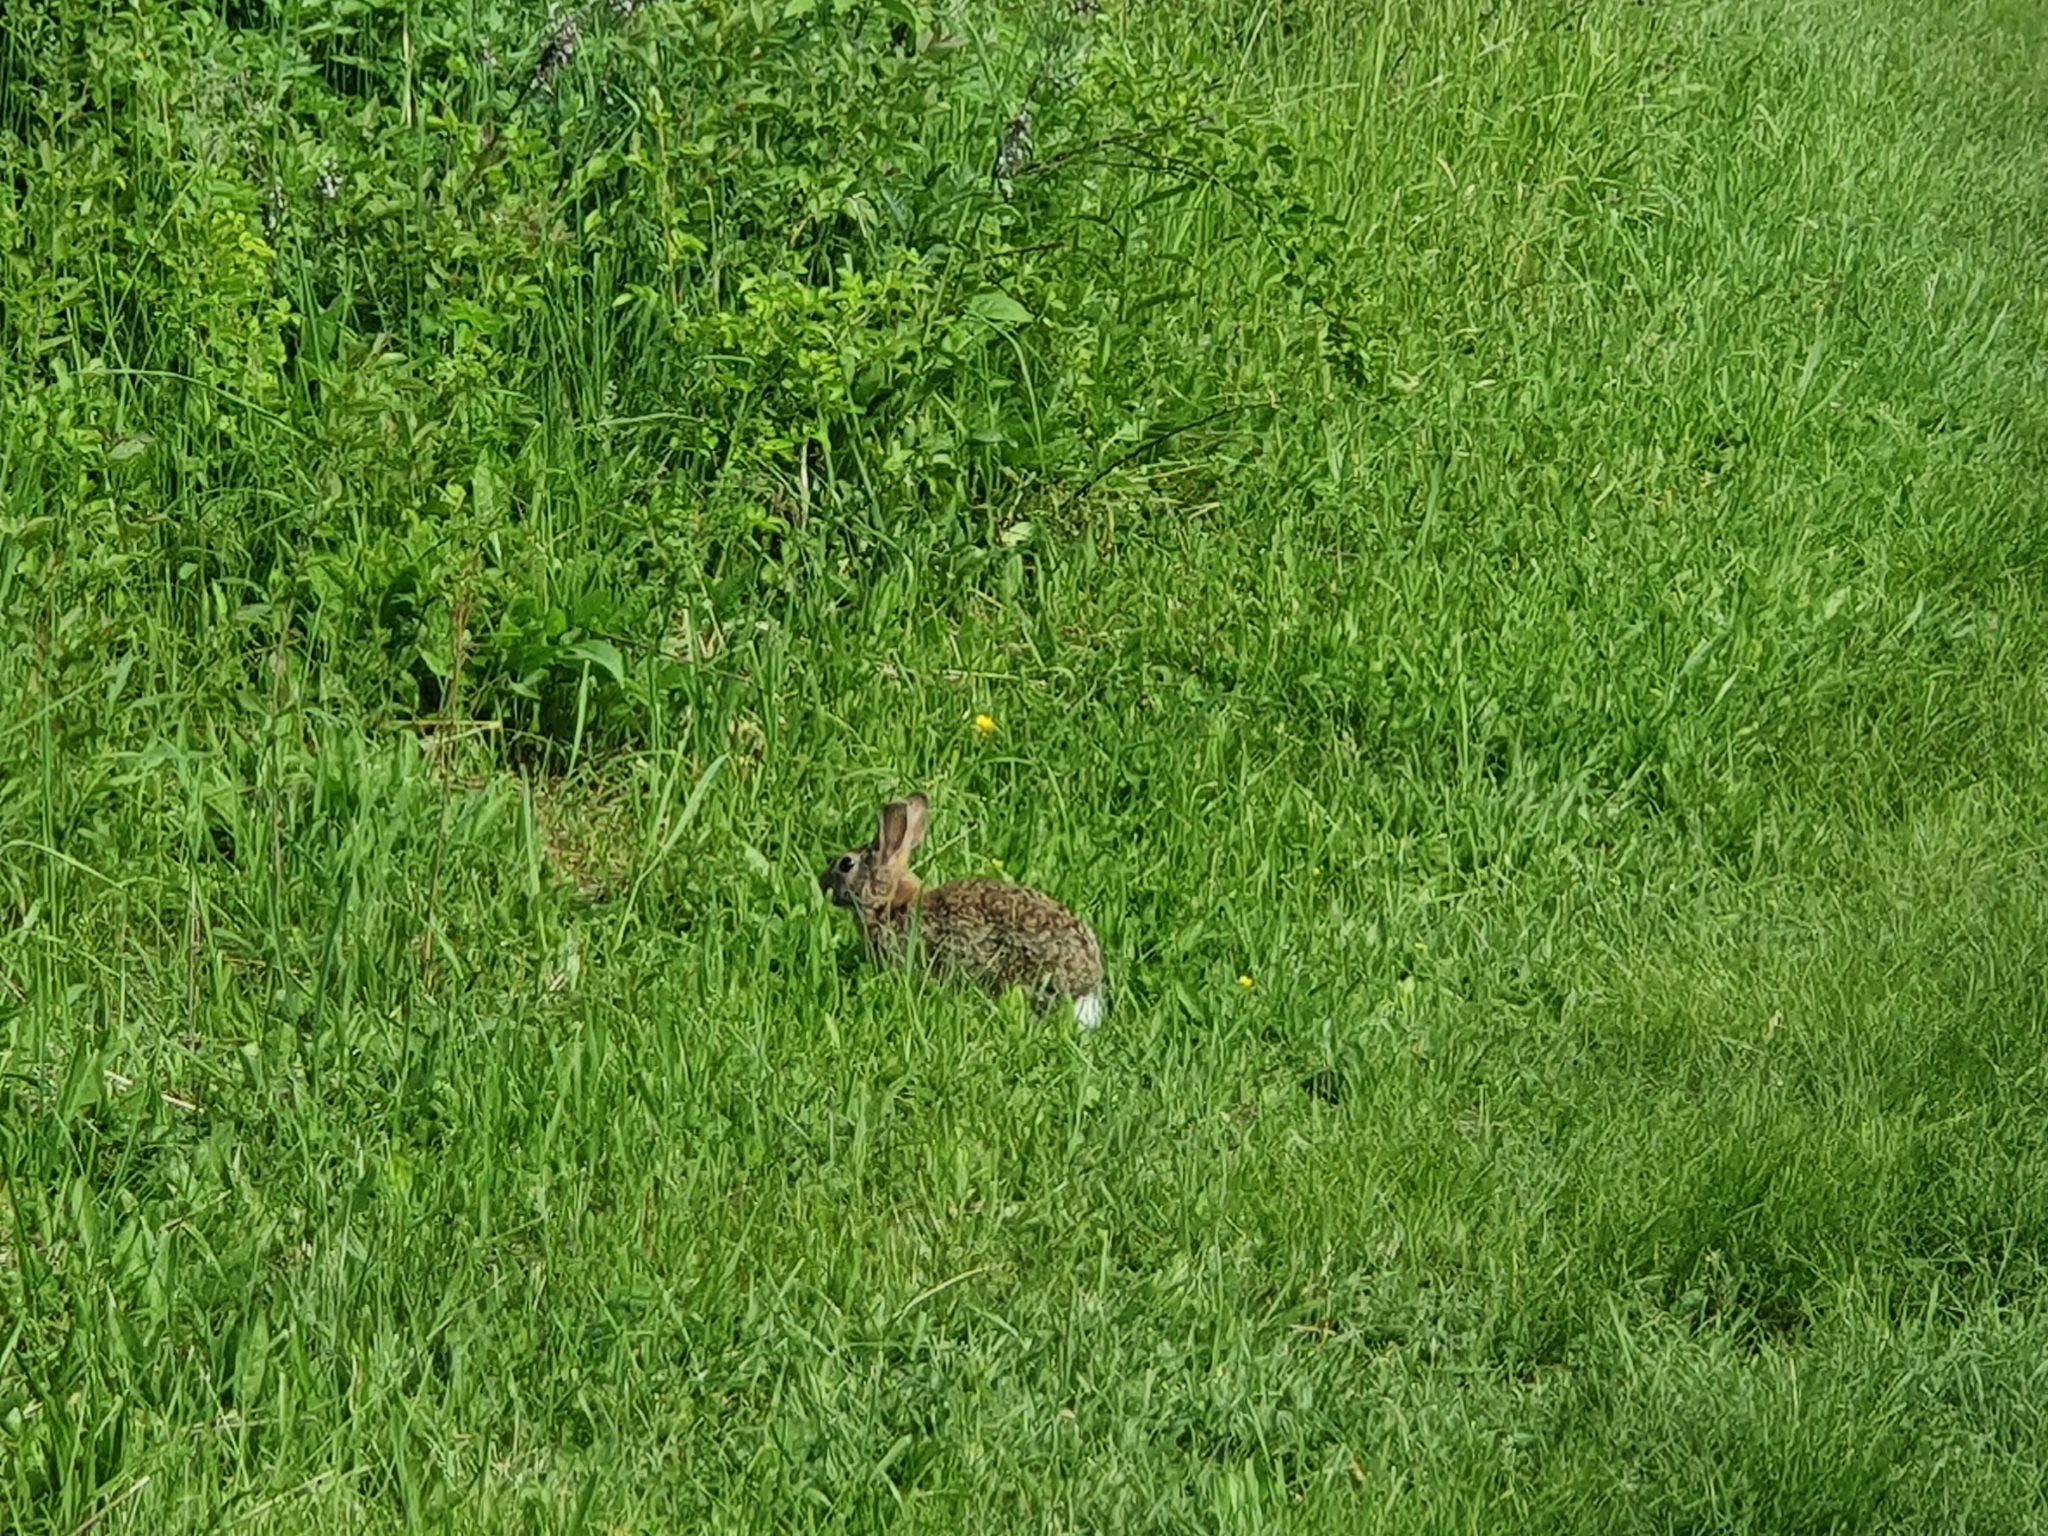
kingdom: Animalia
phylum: Chordata
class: Mammalia
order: Lagomorpha
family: Leporidae
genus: Sylvilagus
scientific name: Sylvilagus floridanus
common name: Eastern cottontail
